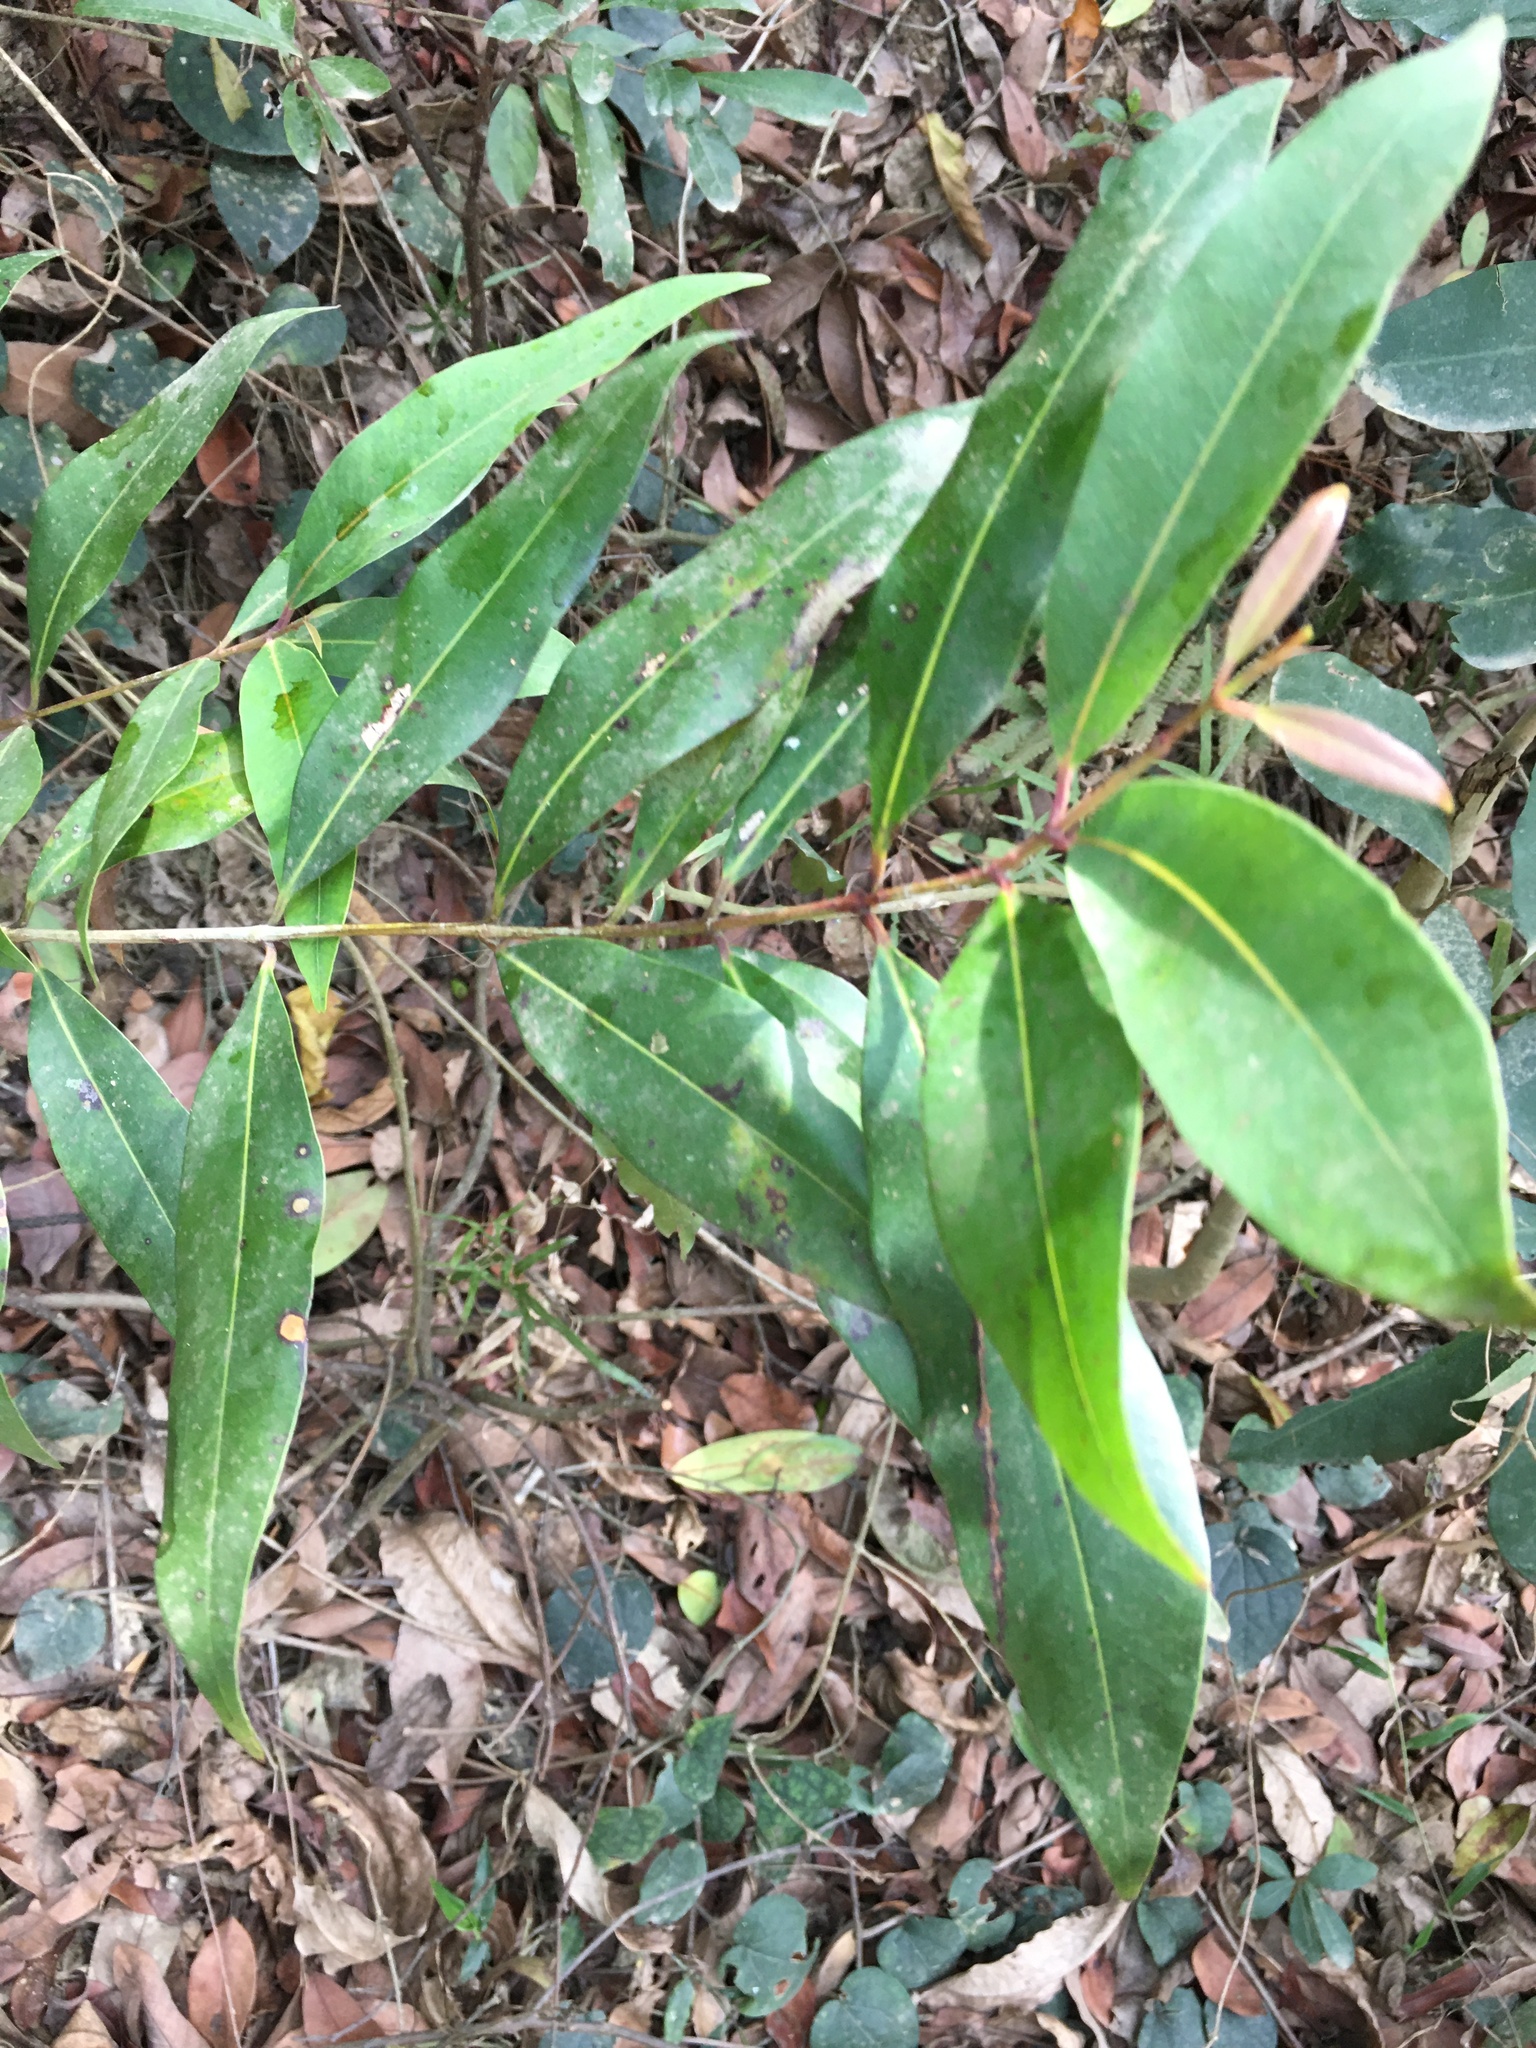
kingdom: Plantae
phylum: Tracheophyta
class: Magnoliopsida
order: Myrtales
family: Myrtaceae
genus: Syzygium
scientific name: Syzygium jambos
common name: Malabar plum
